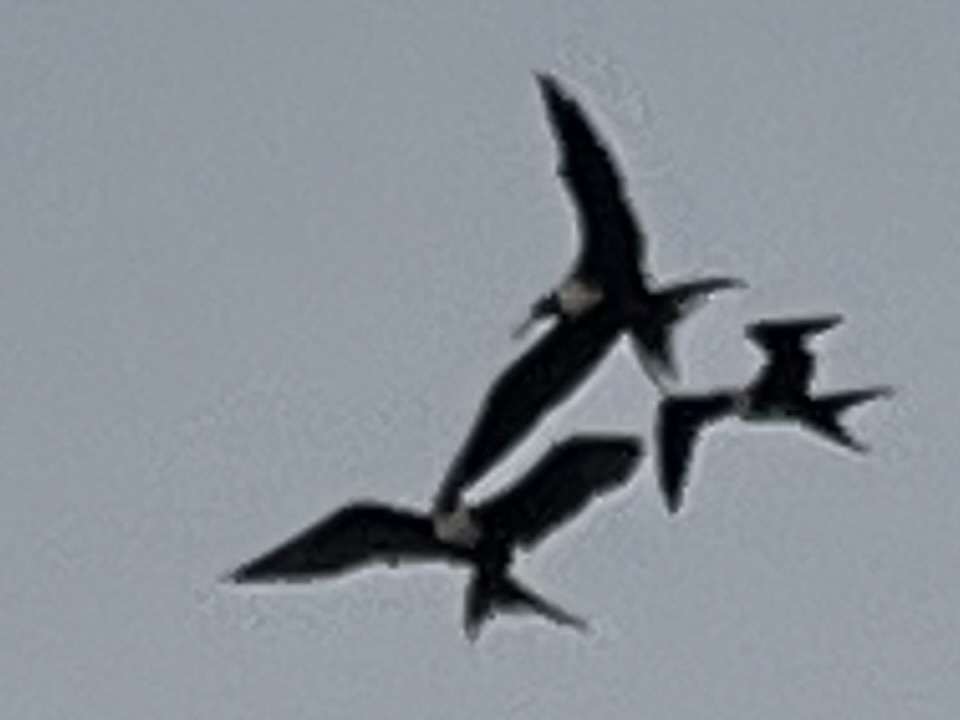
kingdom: Animalia
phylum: Chordata
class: Aves
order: Suliformes
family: Fregatidae
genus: Fregata
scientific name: Fregata magnificens
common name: Magnificent frigatebird
